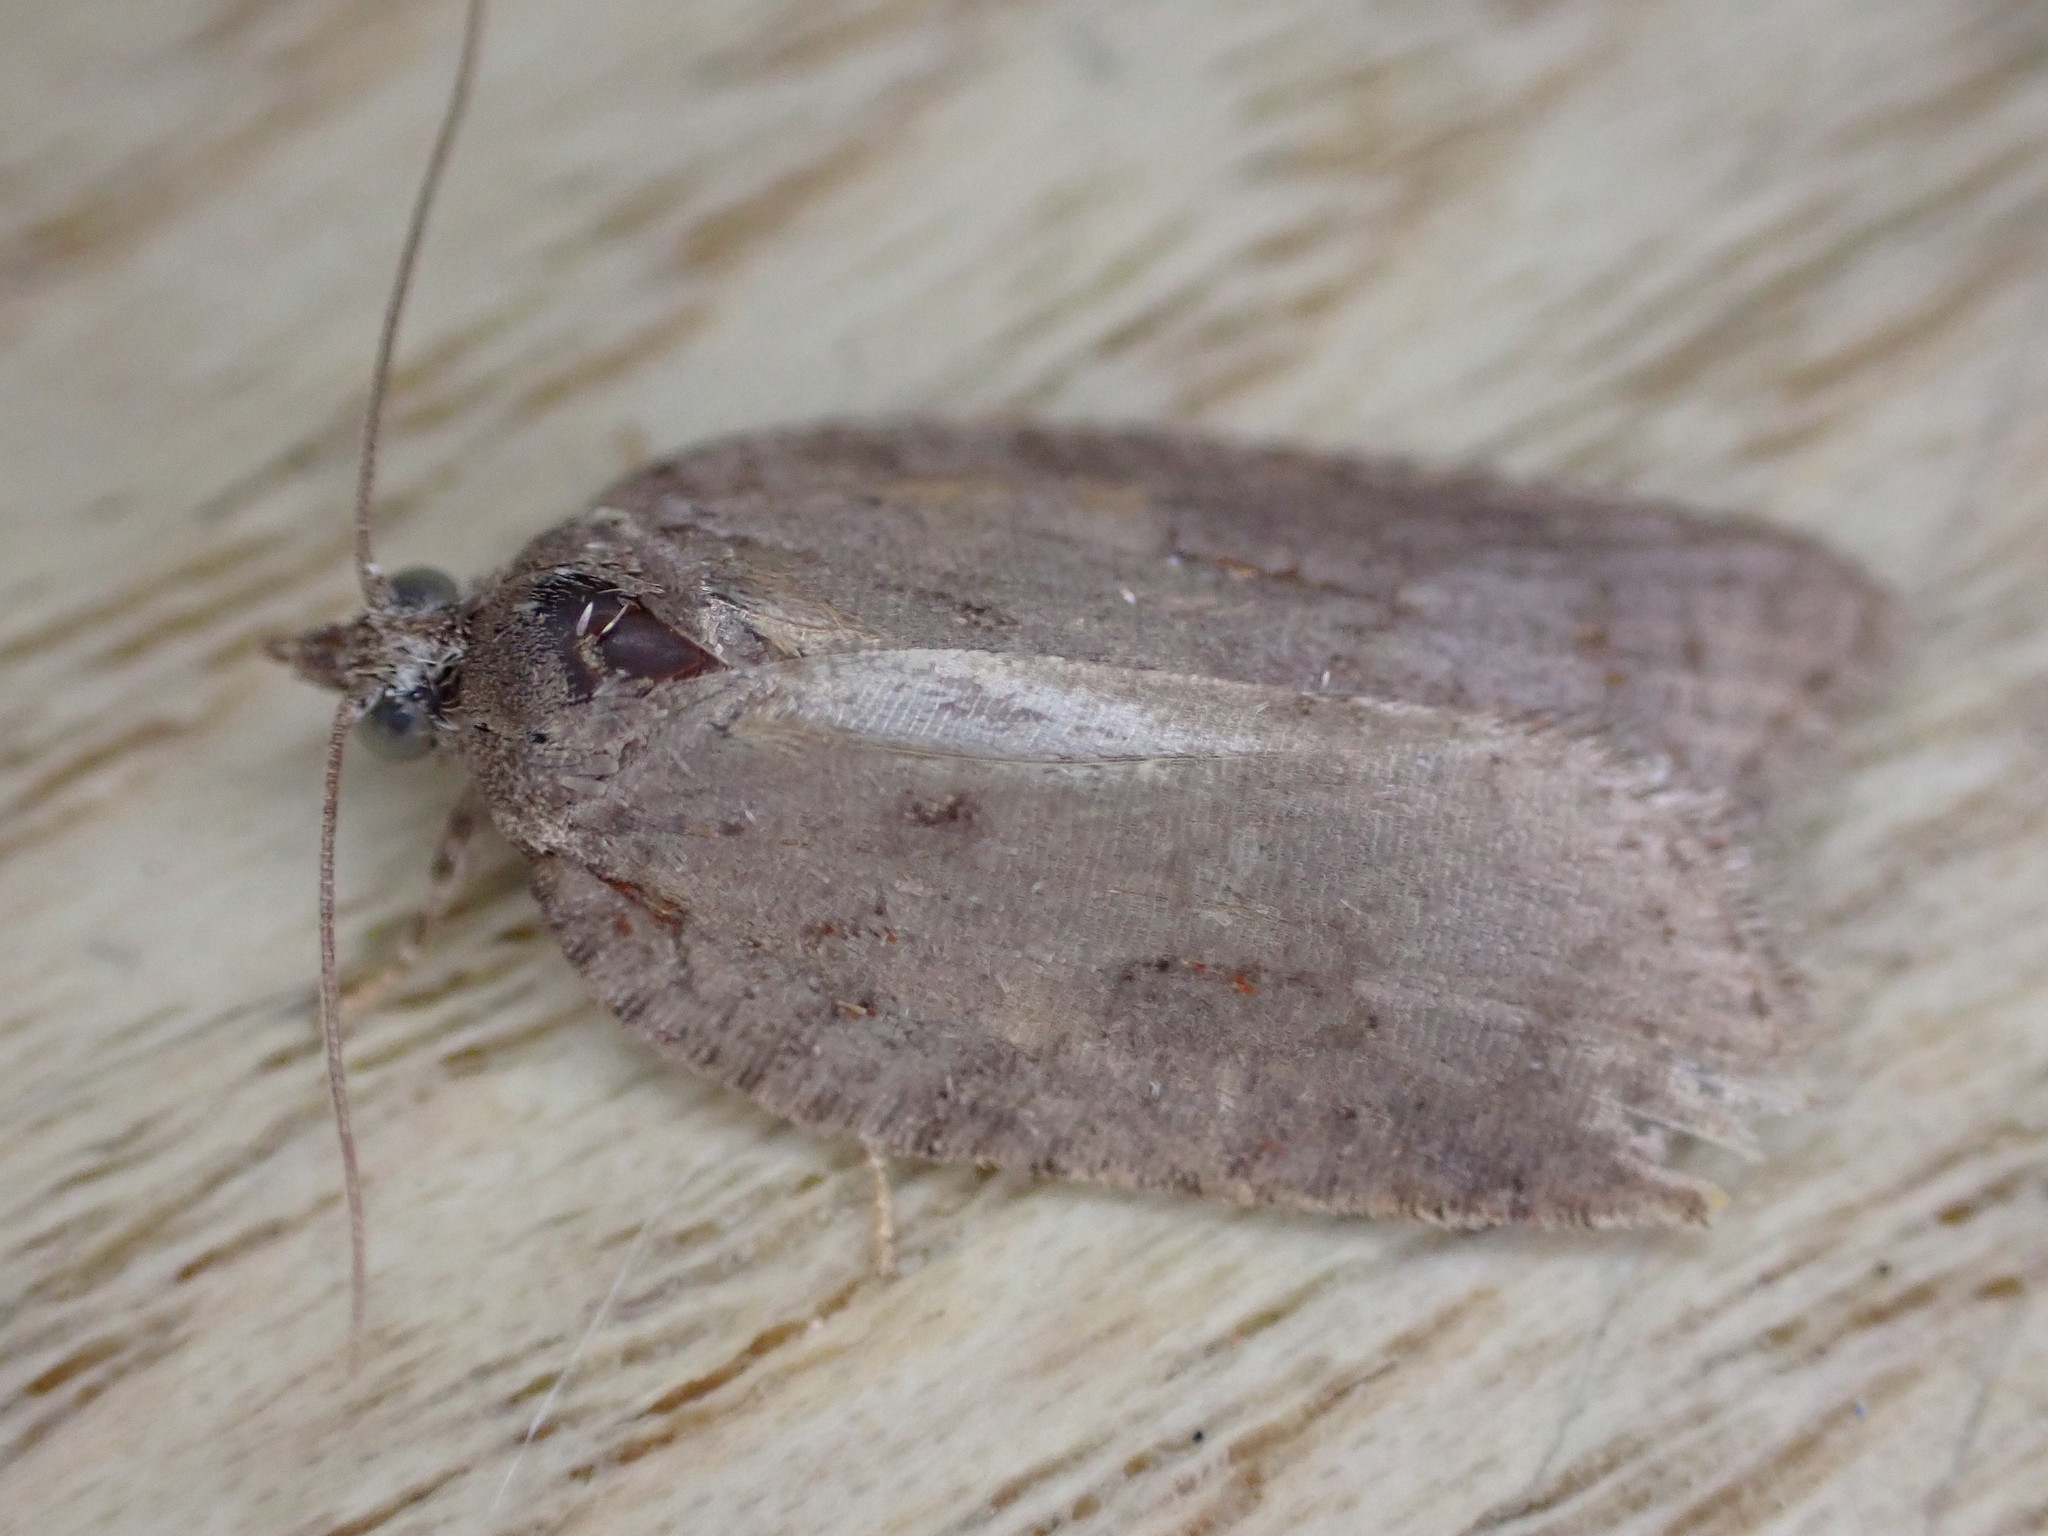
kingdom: Animalia
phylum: Arthropoda
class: Insecta
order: Lepidoptera
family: Tortricidae
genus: Acleris
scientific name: Acleris sparsana
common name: Ashy button
